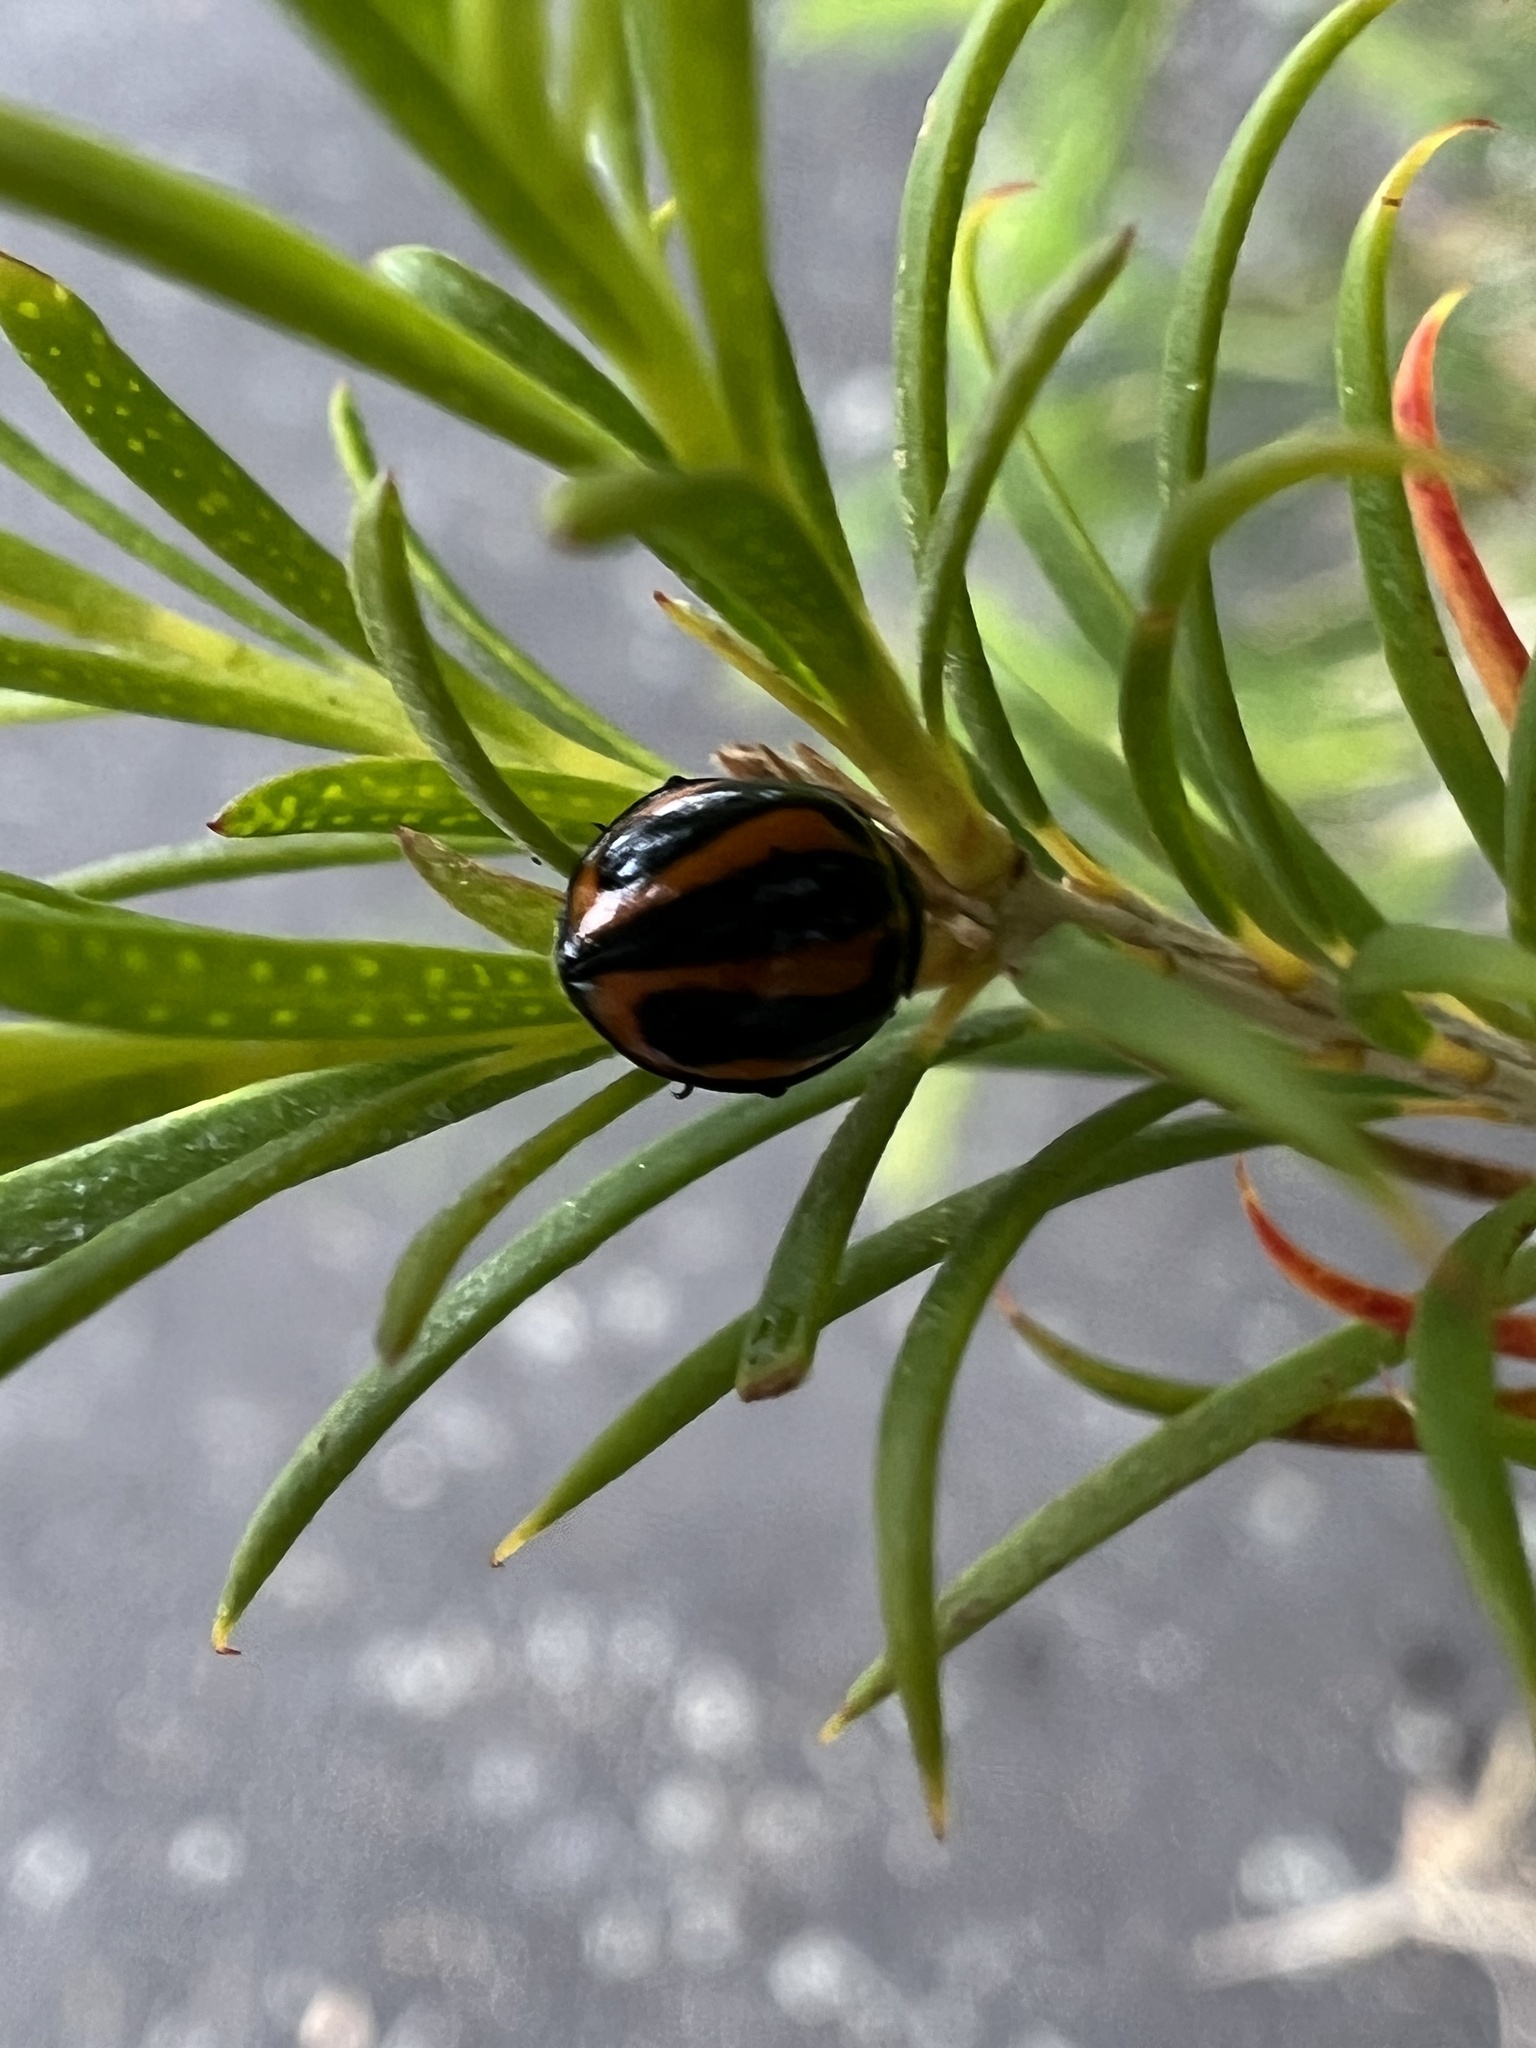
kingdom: Animalia
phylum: Arthropoda
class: Insecta
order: Coleoptera
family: Coccinellidae
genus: Micraspis
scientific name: Micraspis frenata
